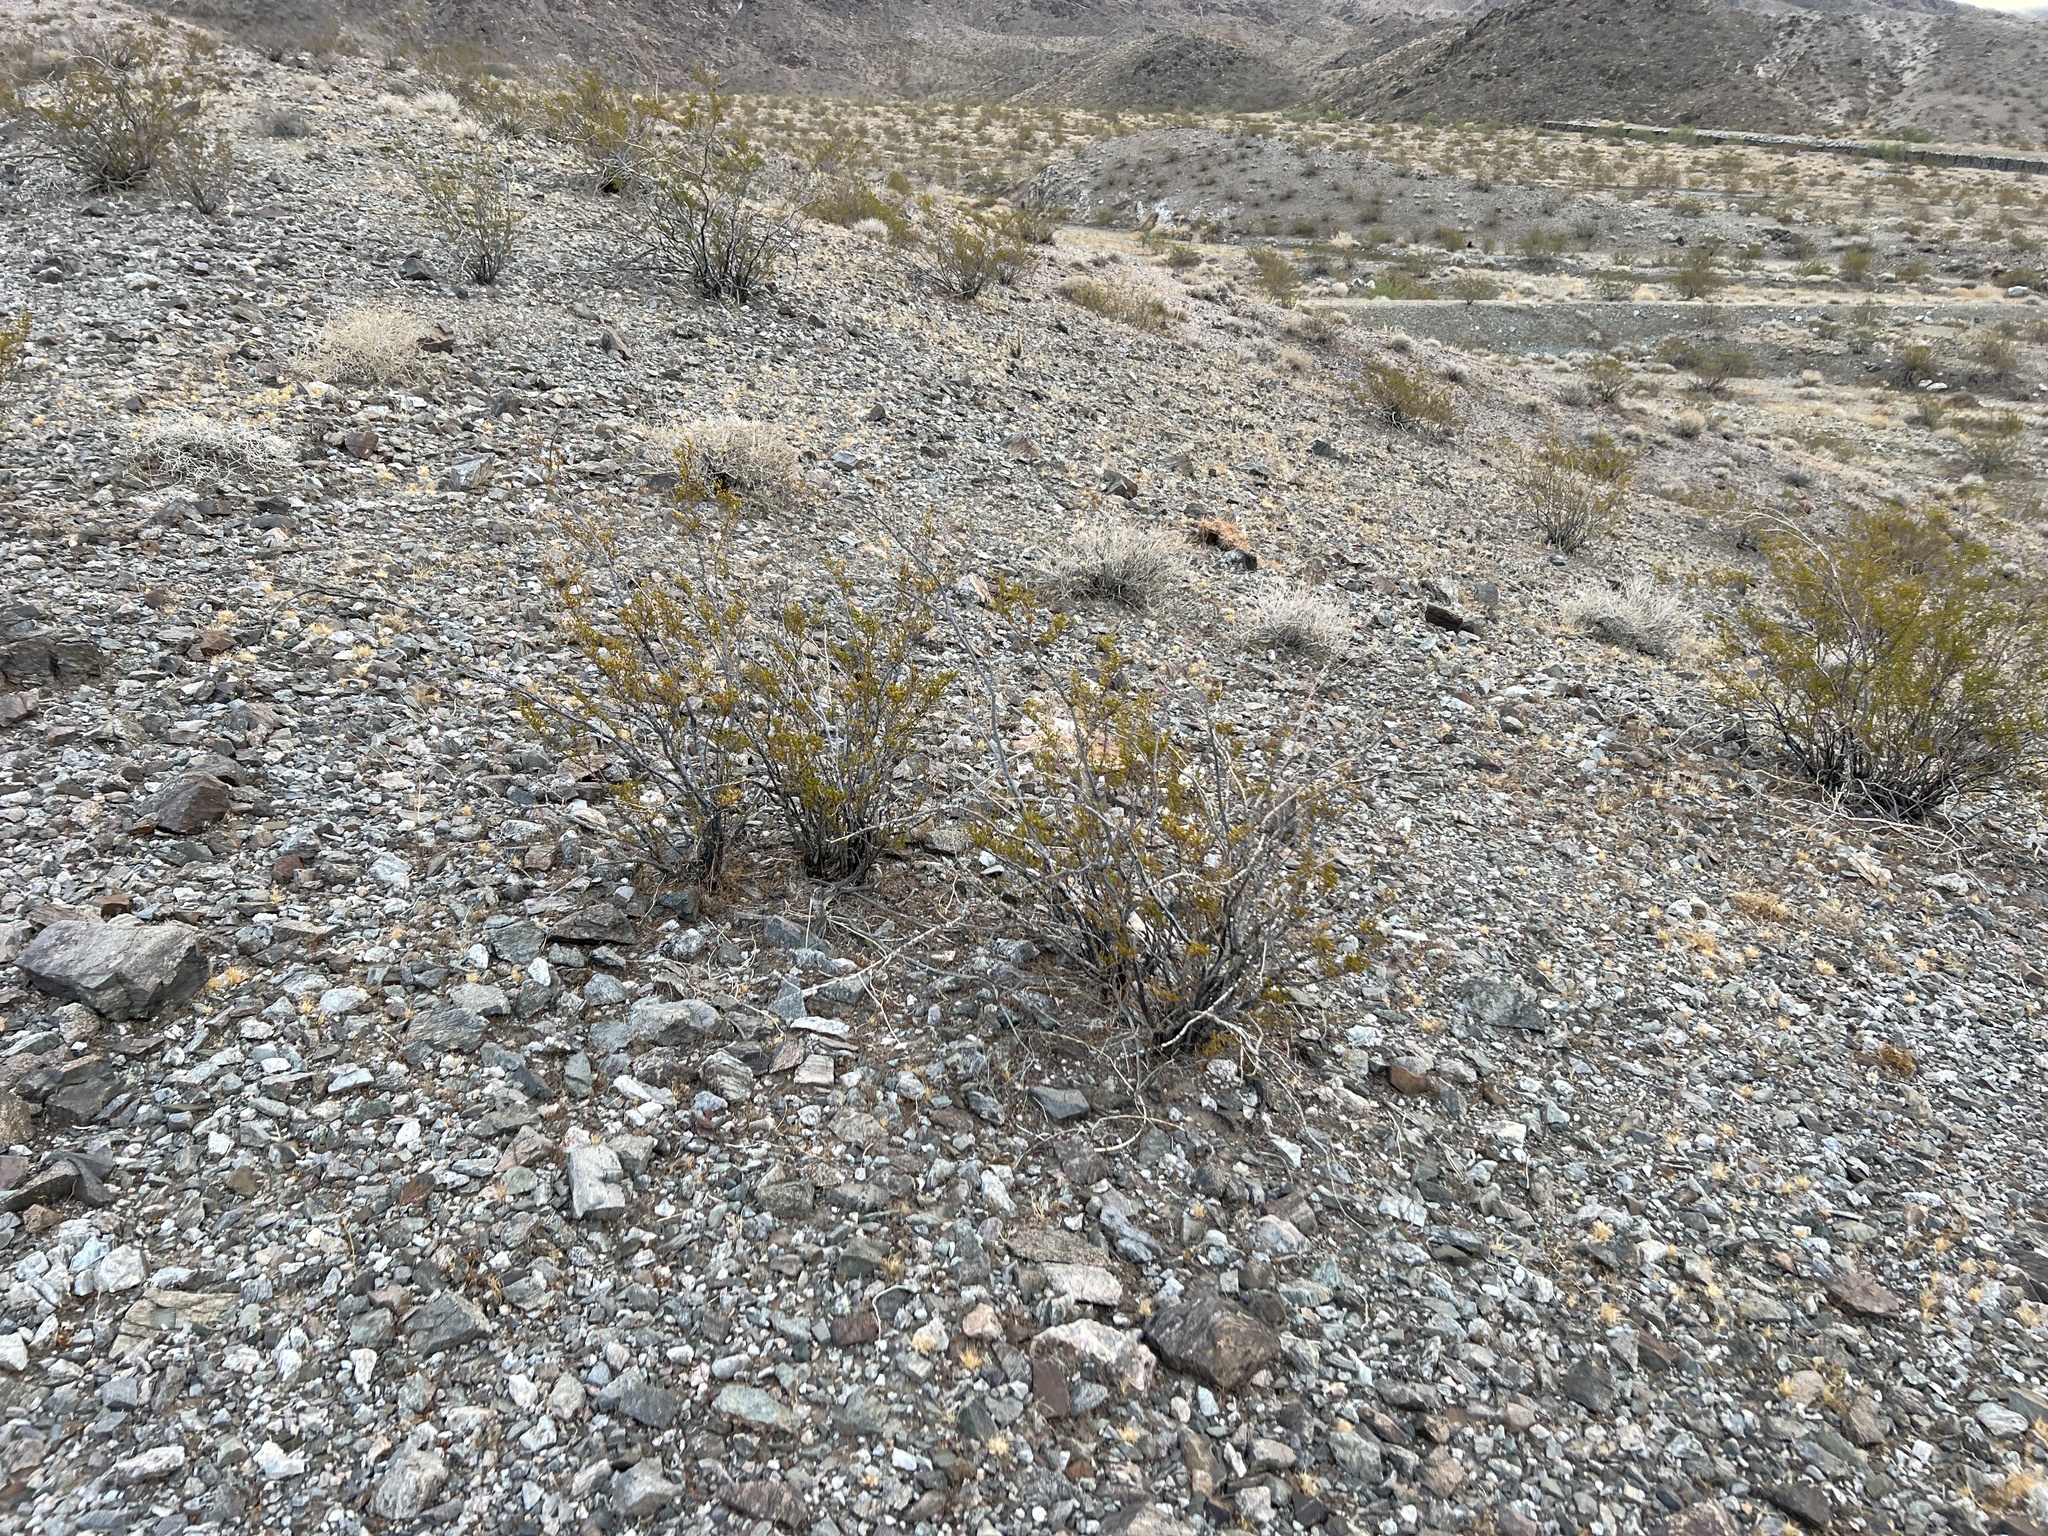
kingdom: Plantae
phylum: Tracheophyta
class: Magnoliopsida
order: Zygophyllales
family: Zygophyllaceae
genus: Larrea
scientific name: Larrea tridentata
